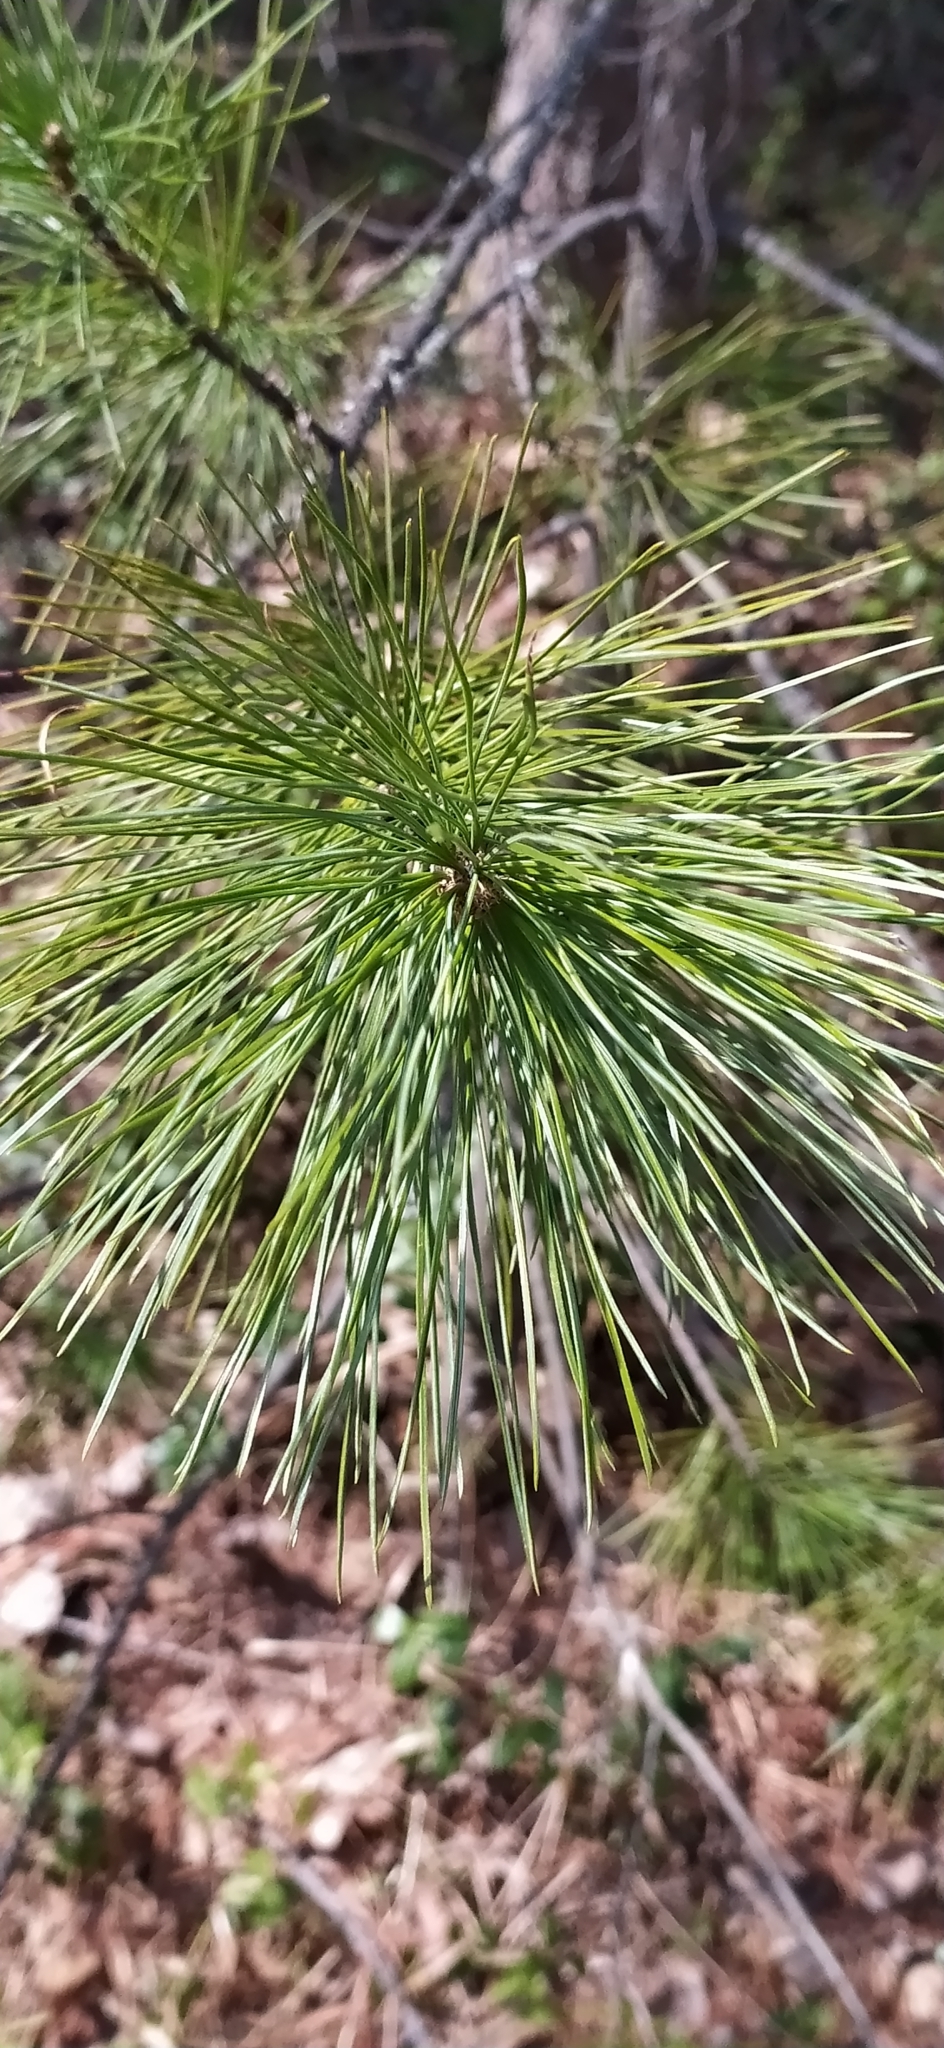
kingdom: Plantae
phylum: Tracheophyta
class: Pinopsida
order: Pinales
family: Pinaceae
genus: Pinus
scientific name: Pinus sibirica
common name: Siberian pine
